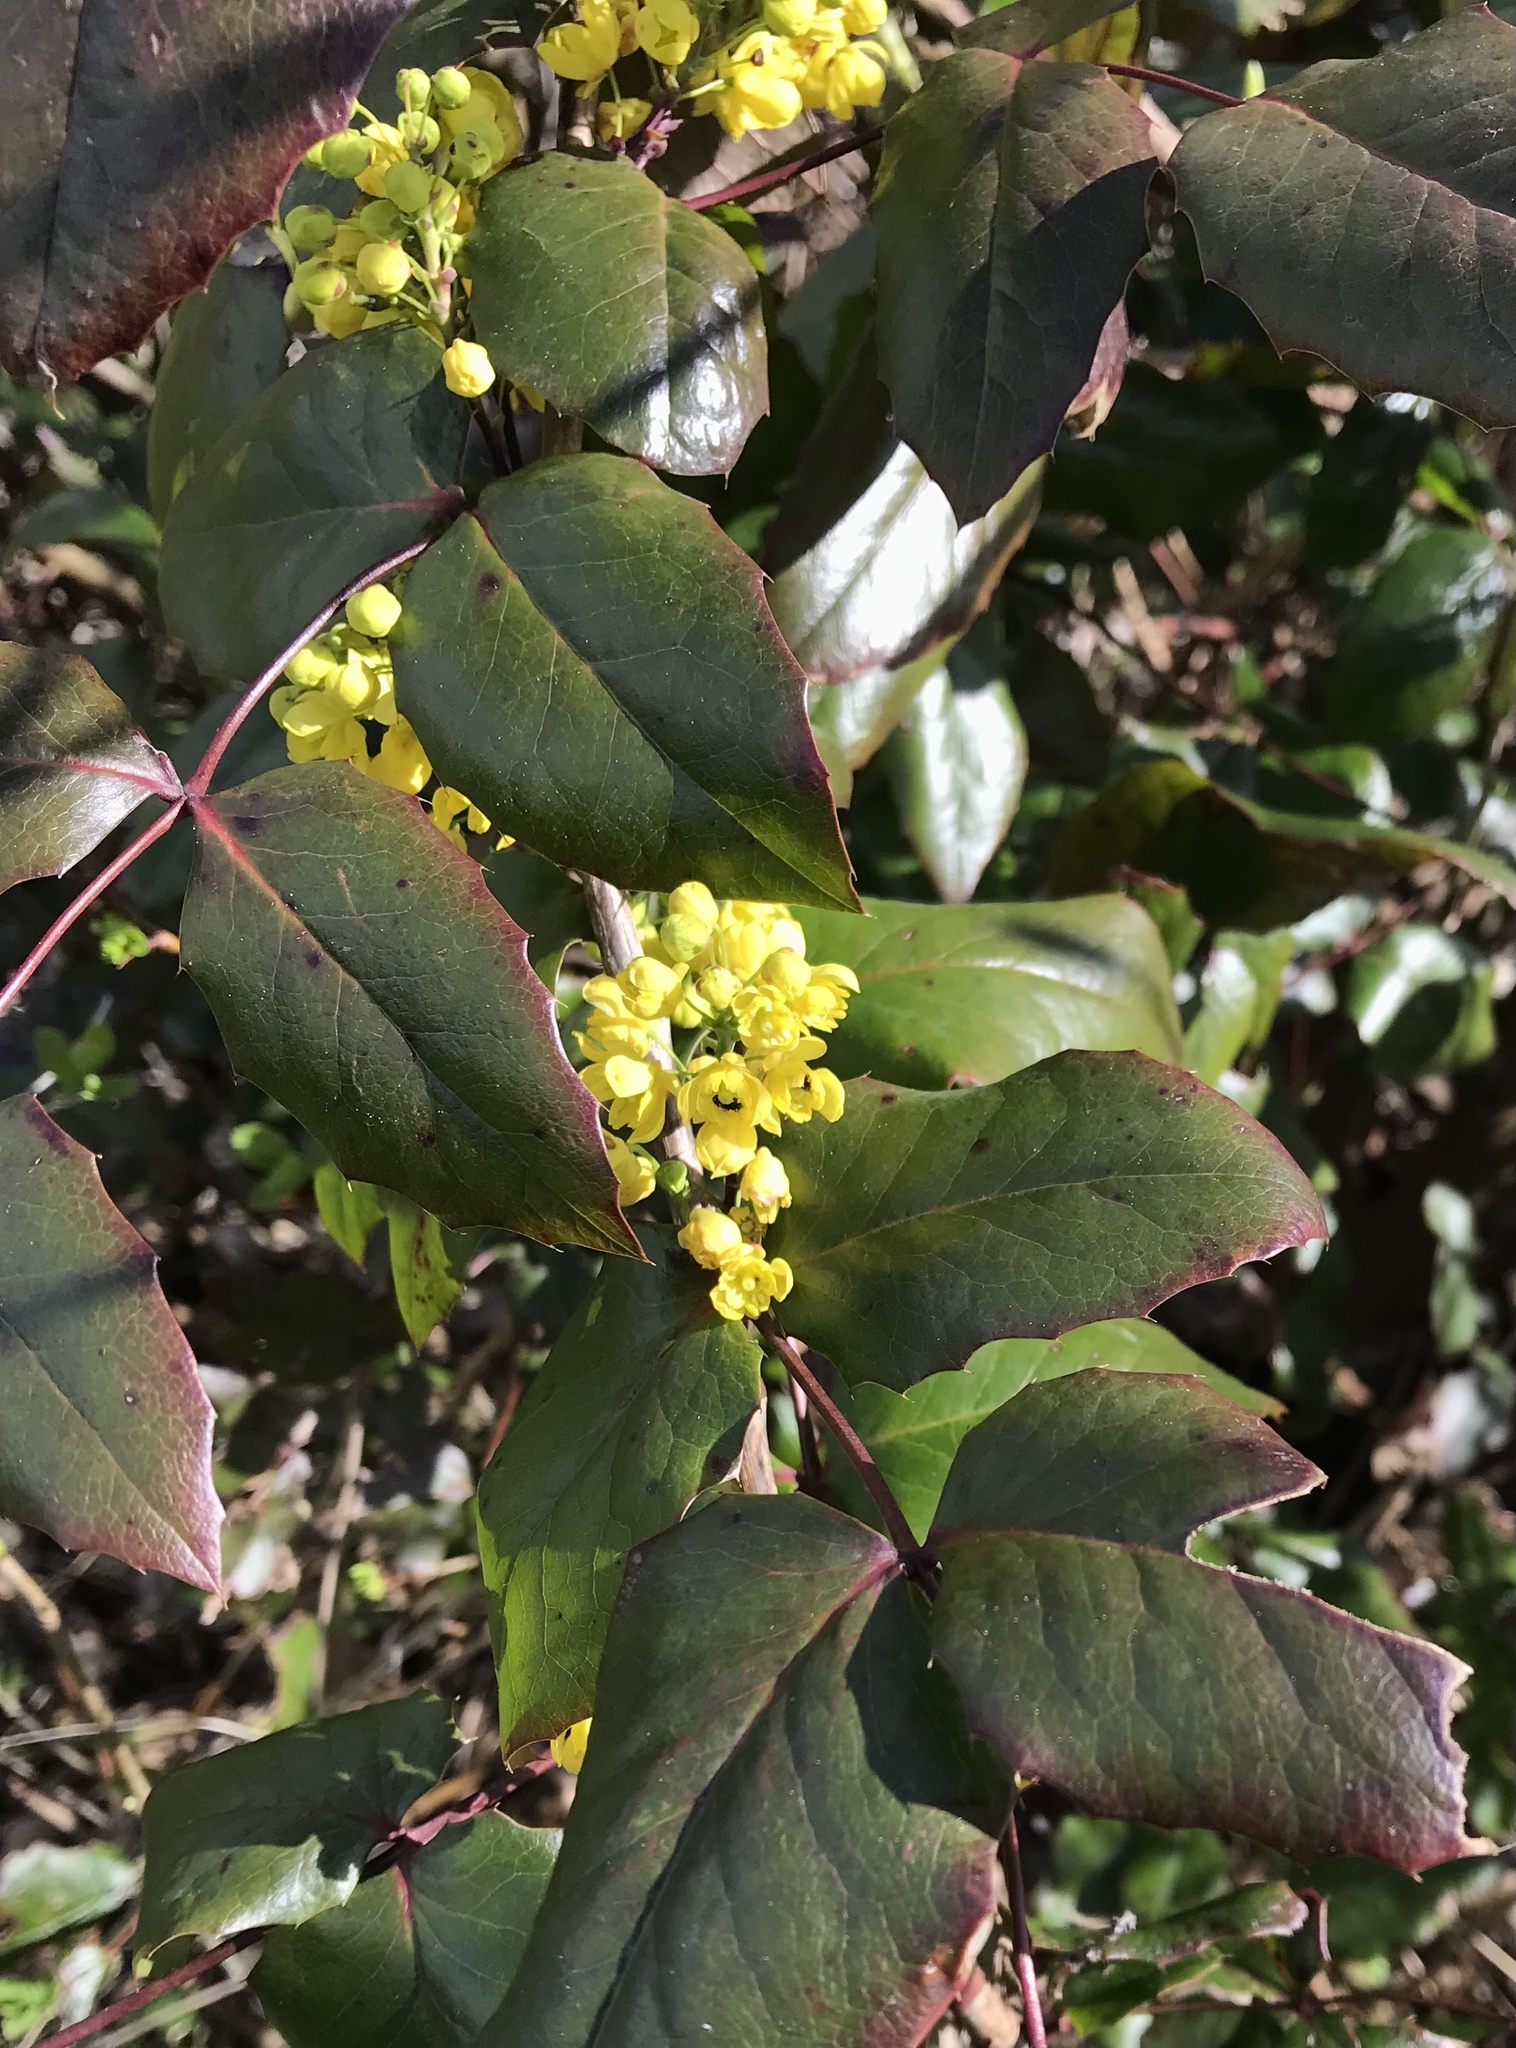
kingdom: Plantae
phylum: Tracheophyta
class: Magnoliopsida
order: Ranunculales
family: Berberidaceae
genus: Mahonia
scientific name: Mahonia aquifolium
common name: Oregon-grape
